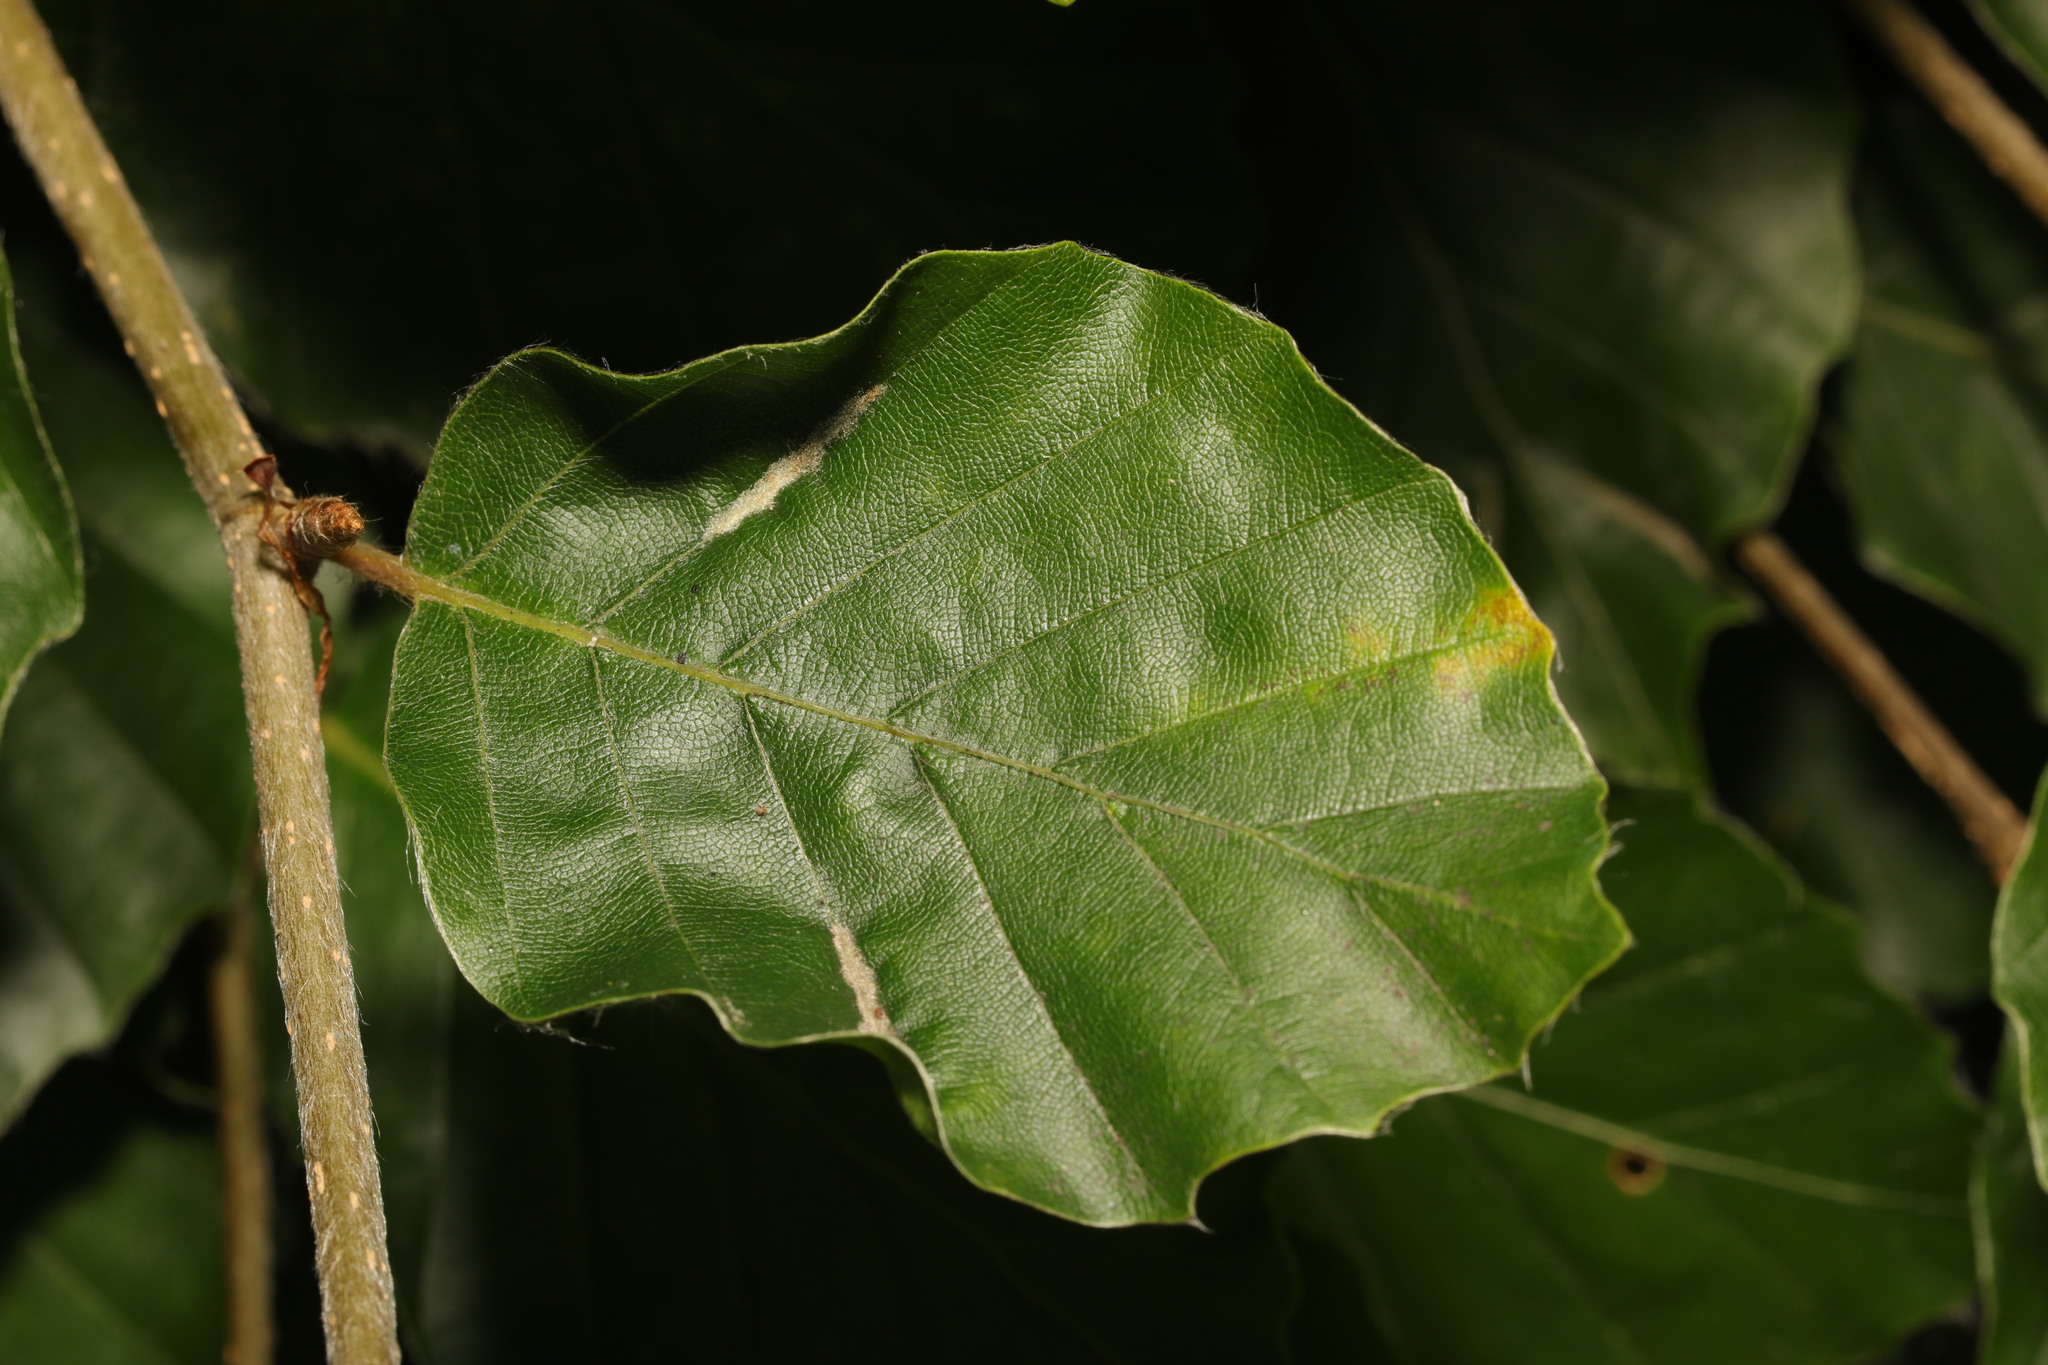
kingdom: Animalia
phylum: Arthropoda
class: Arachnida
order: Trombidiformes
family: Eriophyidae
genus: Aceria
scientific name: Aceria nervisequa
